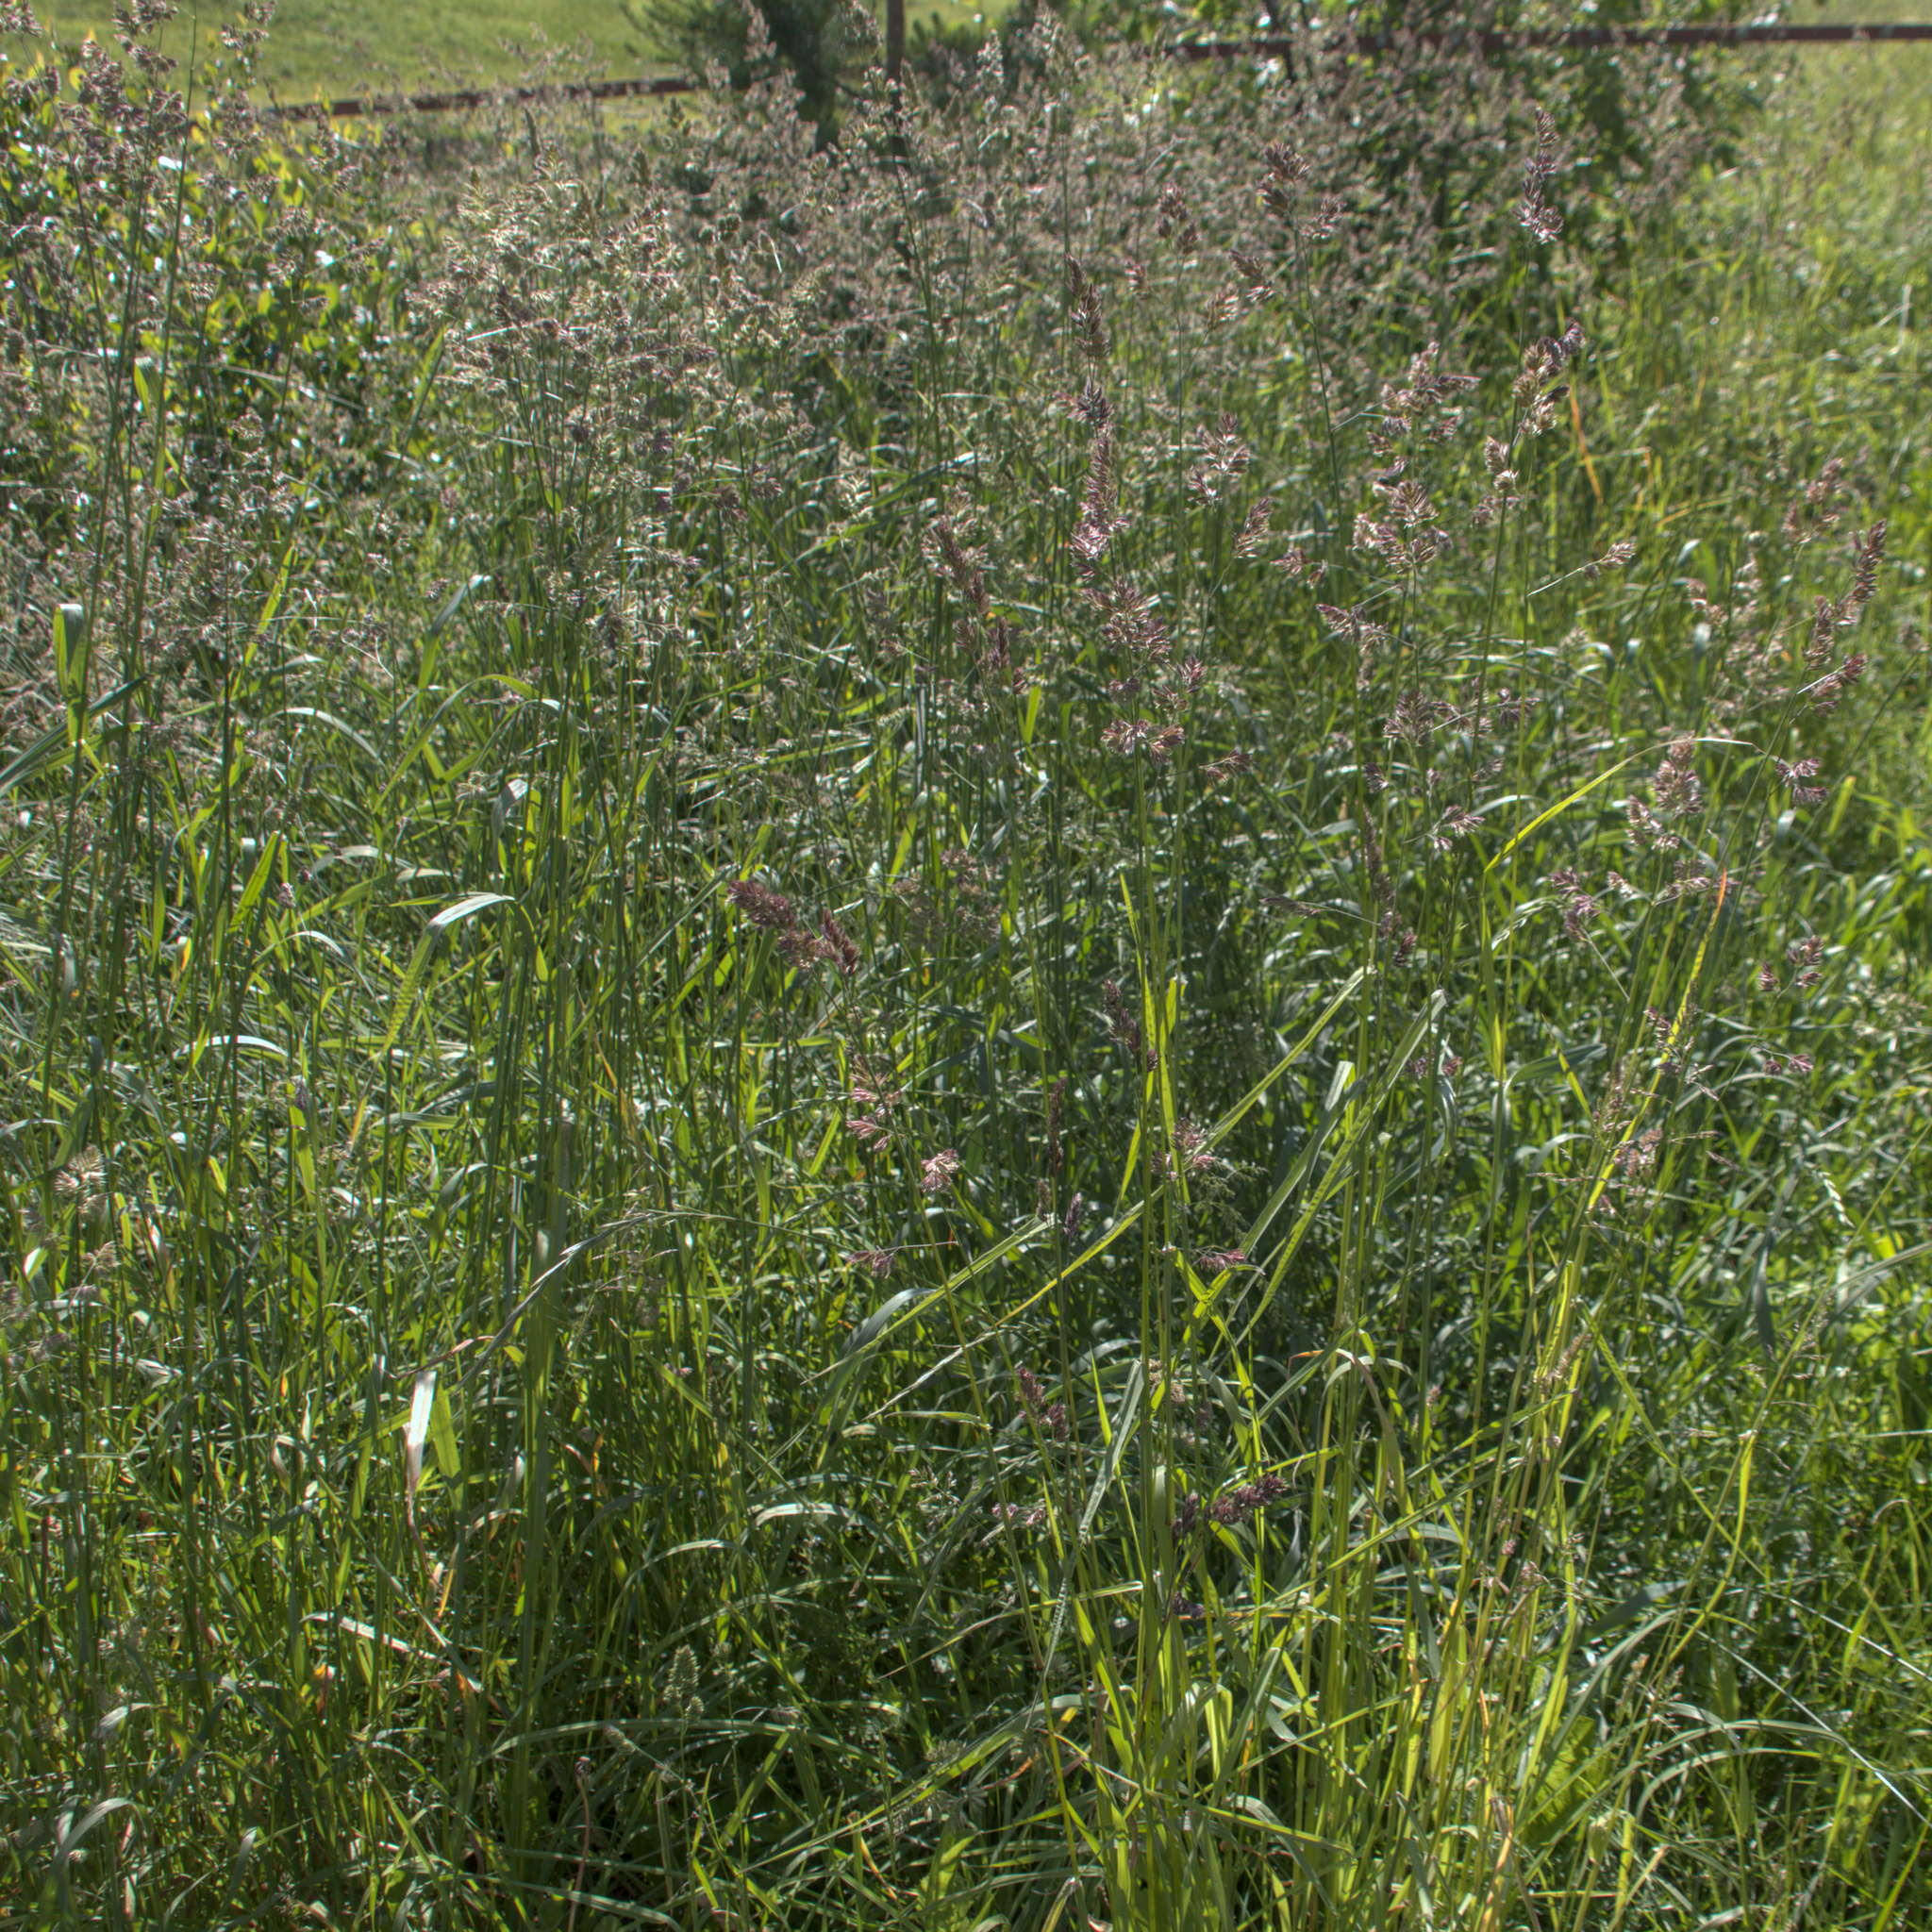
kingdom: Plantae
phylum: Tracheophyta
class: Liliopsida
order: Poales
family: Poaceae
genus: Dactylis
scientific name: Dactylis glomerata
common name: Orchardgrass
